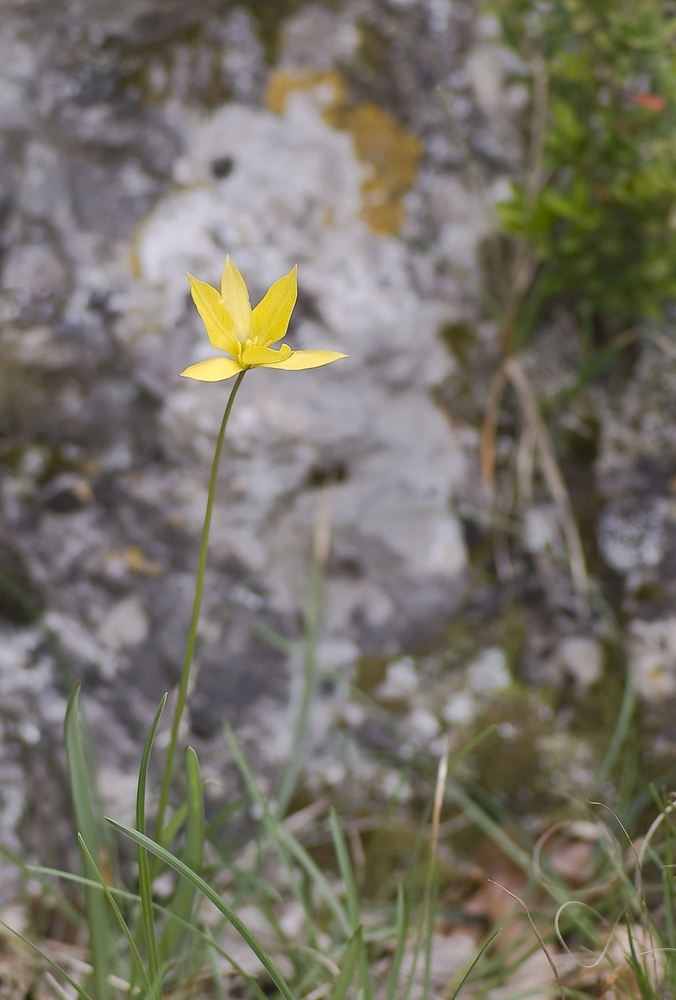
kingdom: Plantae
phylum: Tracheophyta
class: Liliopsida
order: Liliales
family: Liliaceae
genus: Tulipa
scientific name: Tulipa sylvestris
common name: Wild tulip
